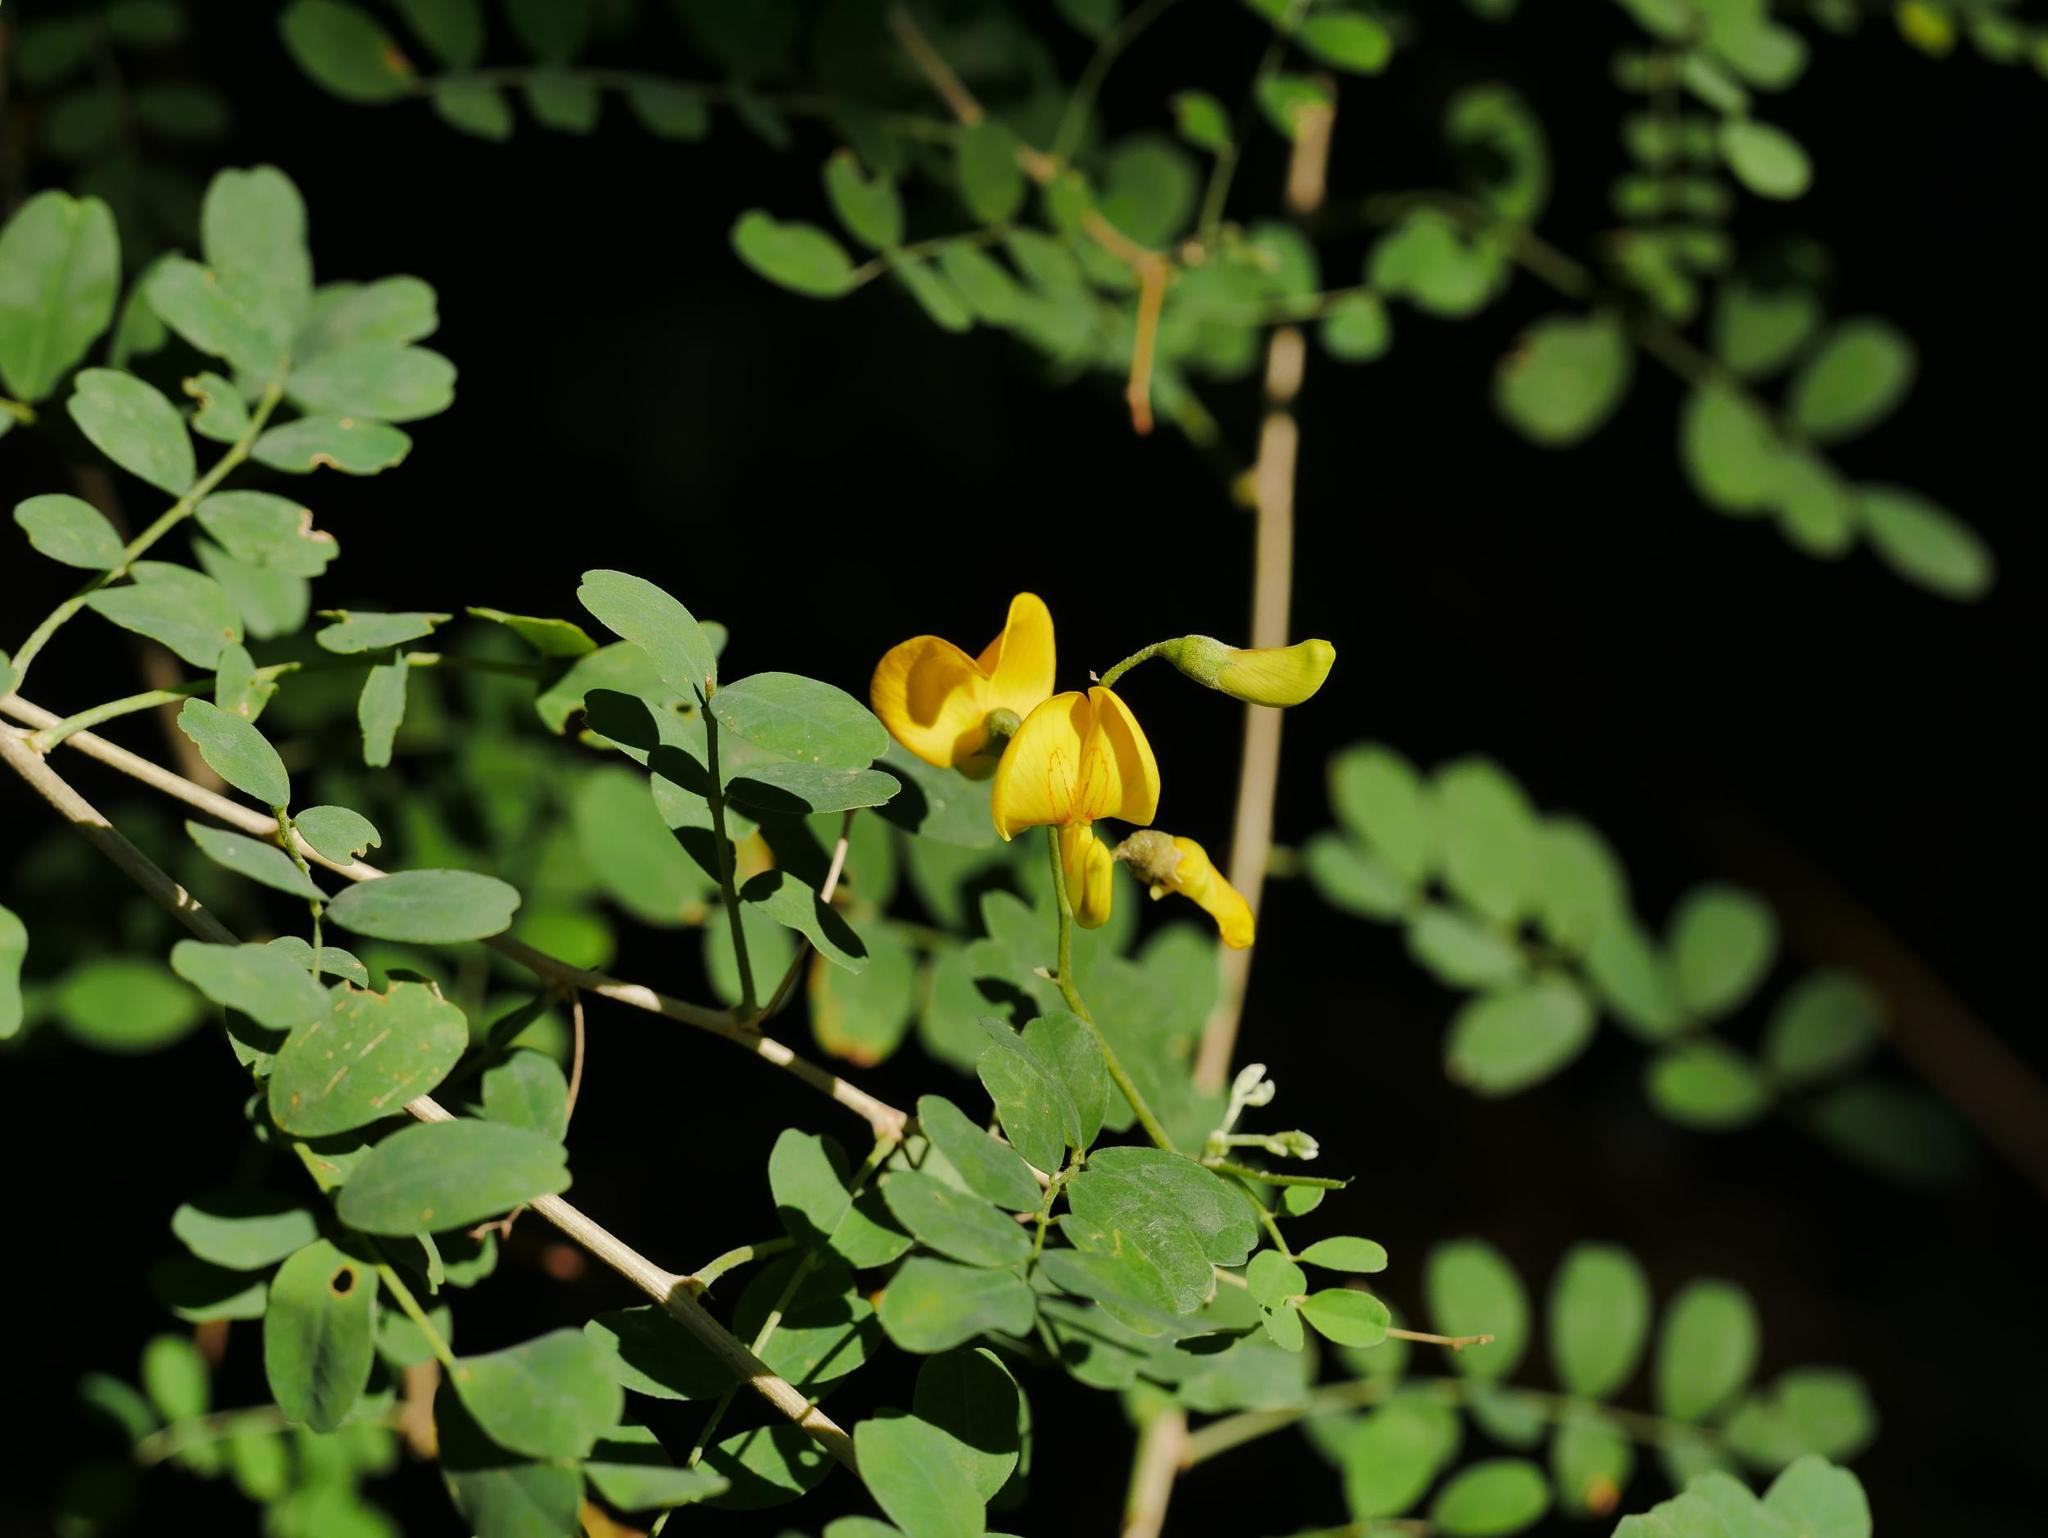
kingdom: Plantae
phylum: Tracheophyta
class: Magnoliopsida
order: Fabales
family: Fabaceae
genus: Colutea
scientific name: Colutea arborescens
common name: Bladder-senna
